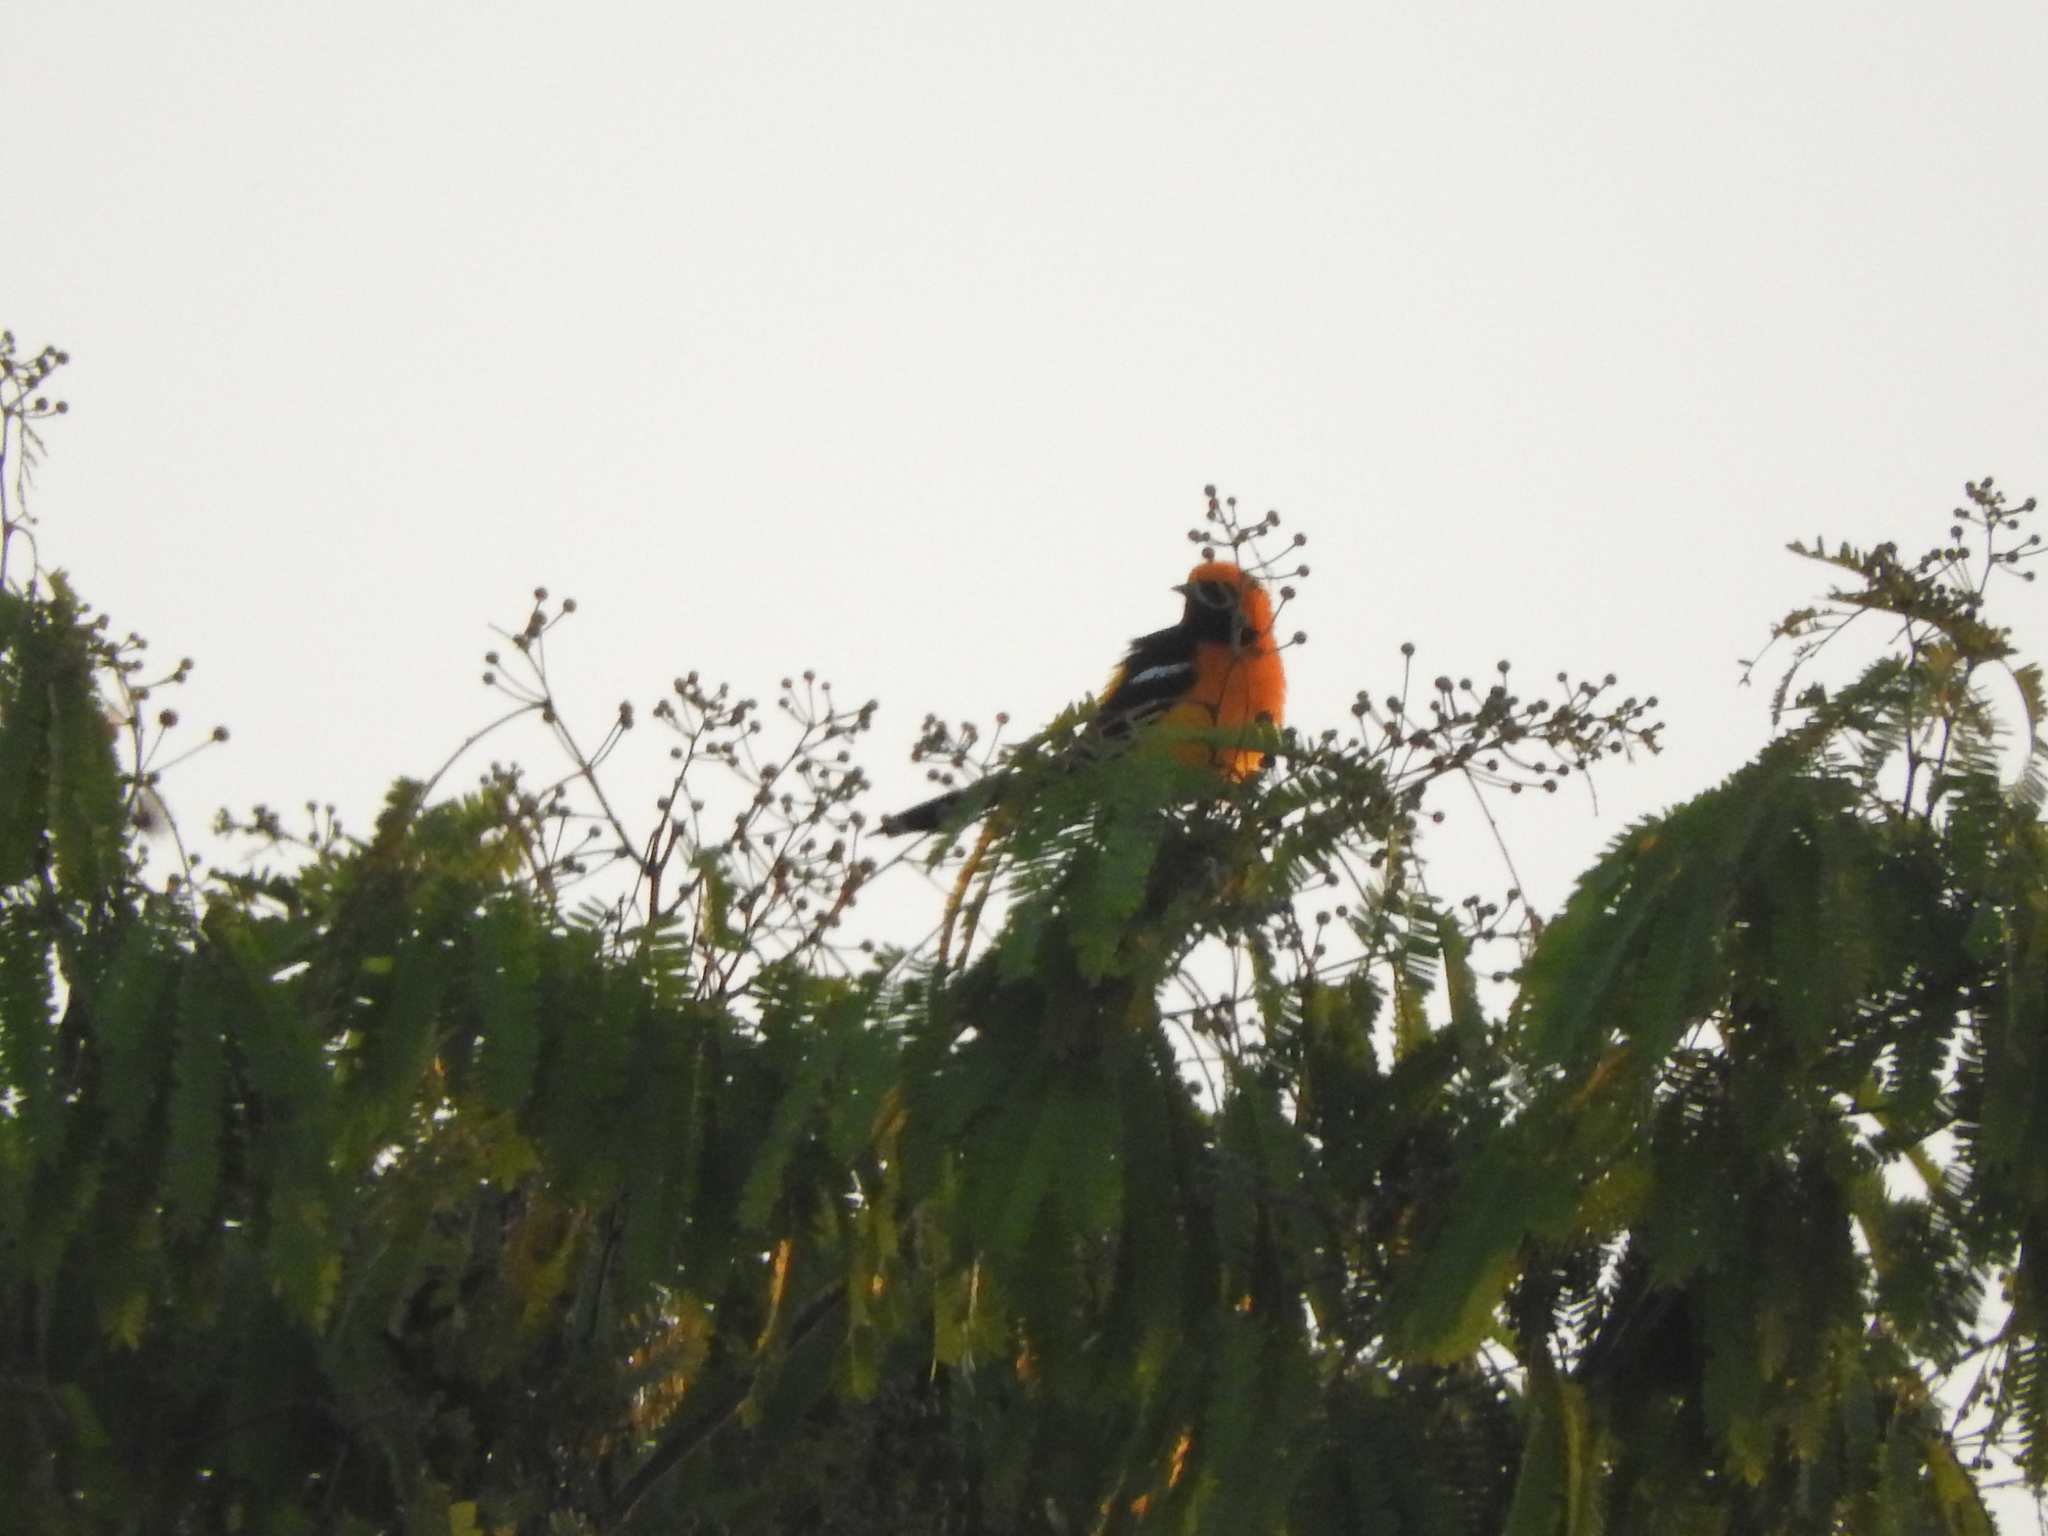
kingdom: Animalia
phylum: Chordata
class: Aves
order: Passeriformes
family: Icteridae
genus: Icterus
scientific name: Icterus cucullatus
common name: Hooded oriole
